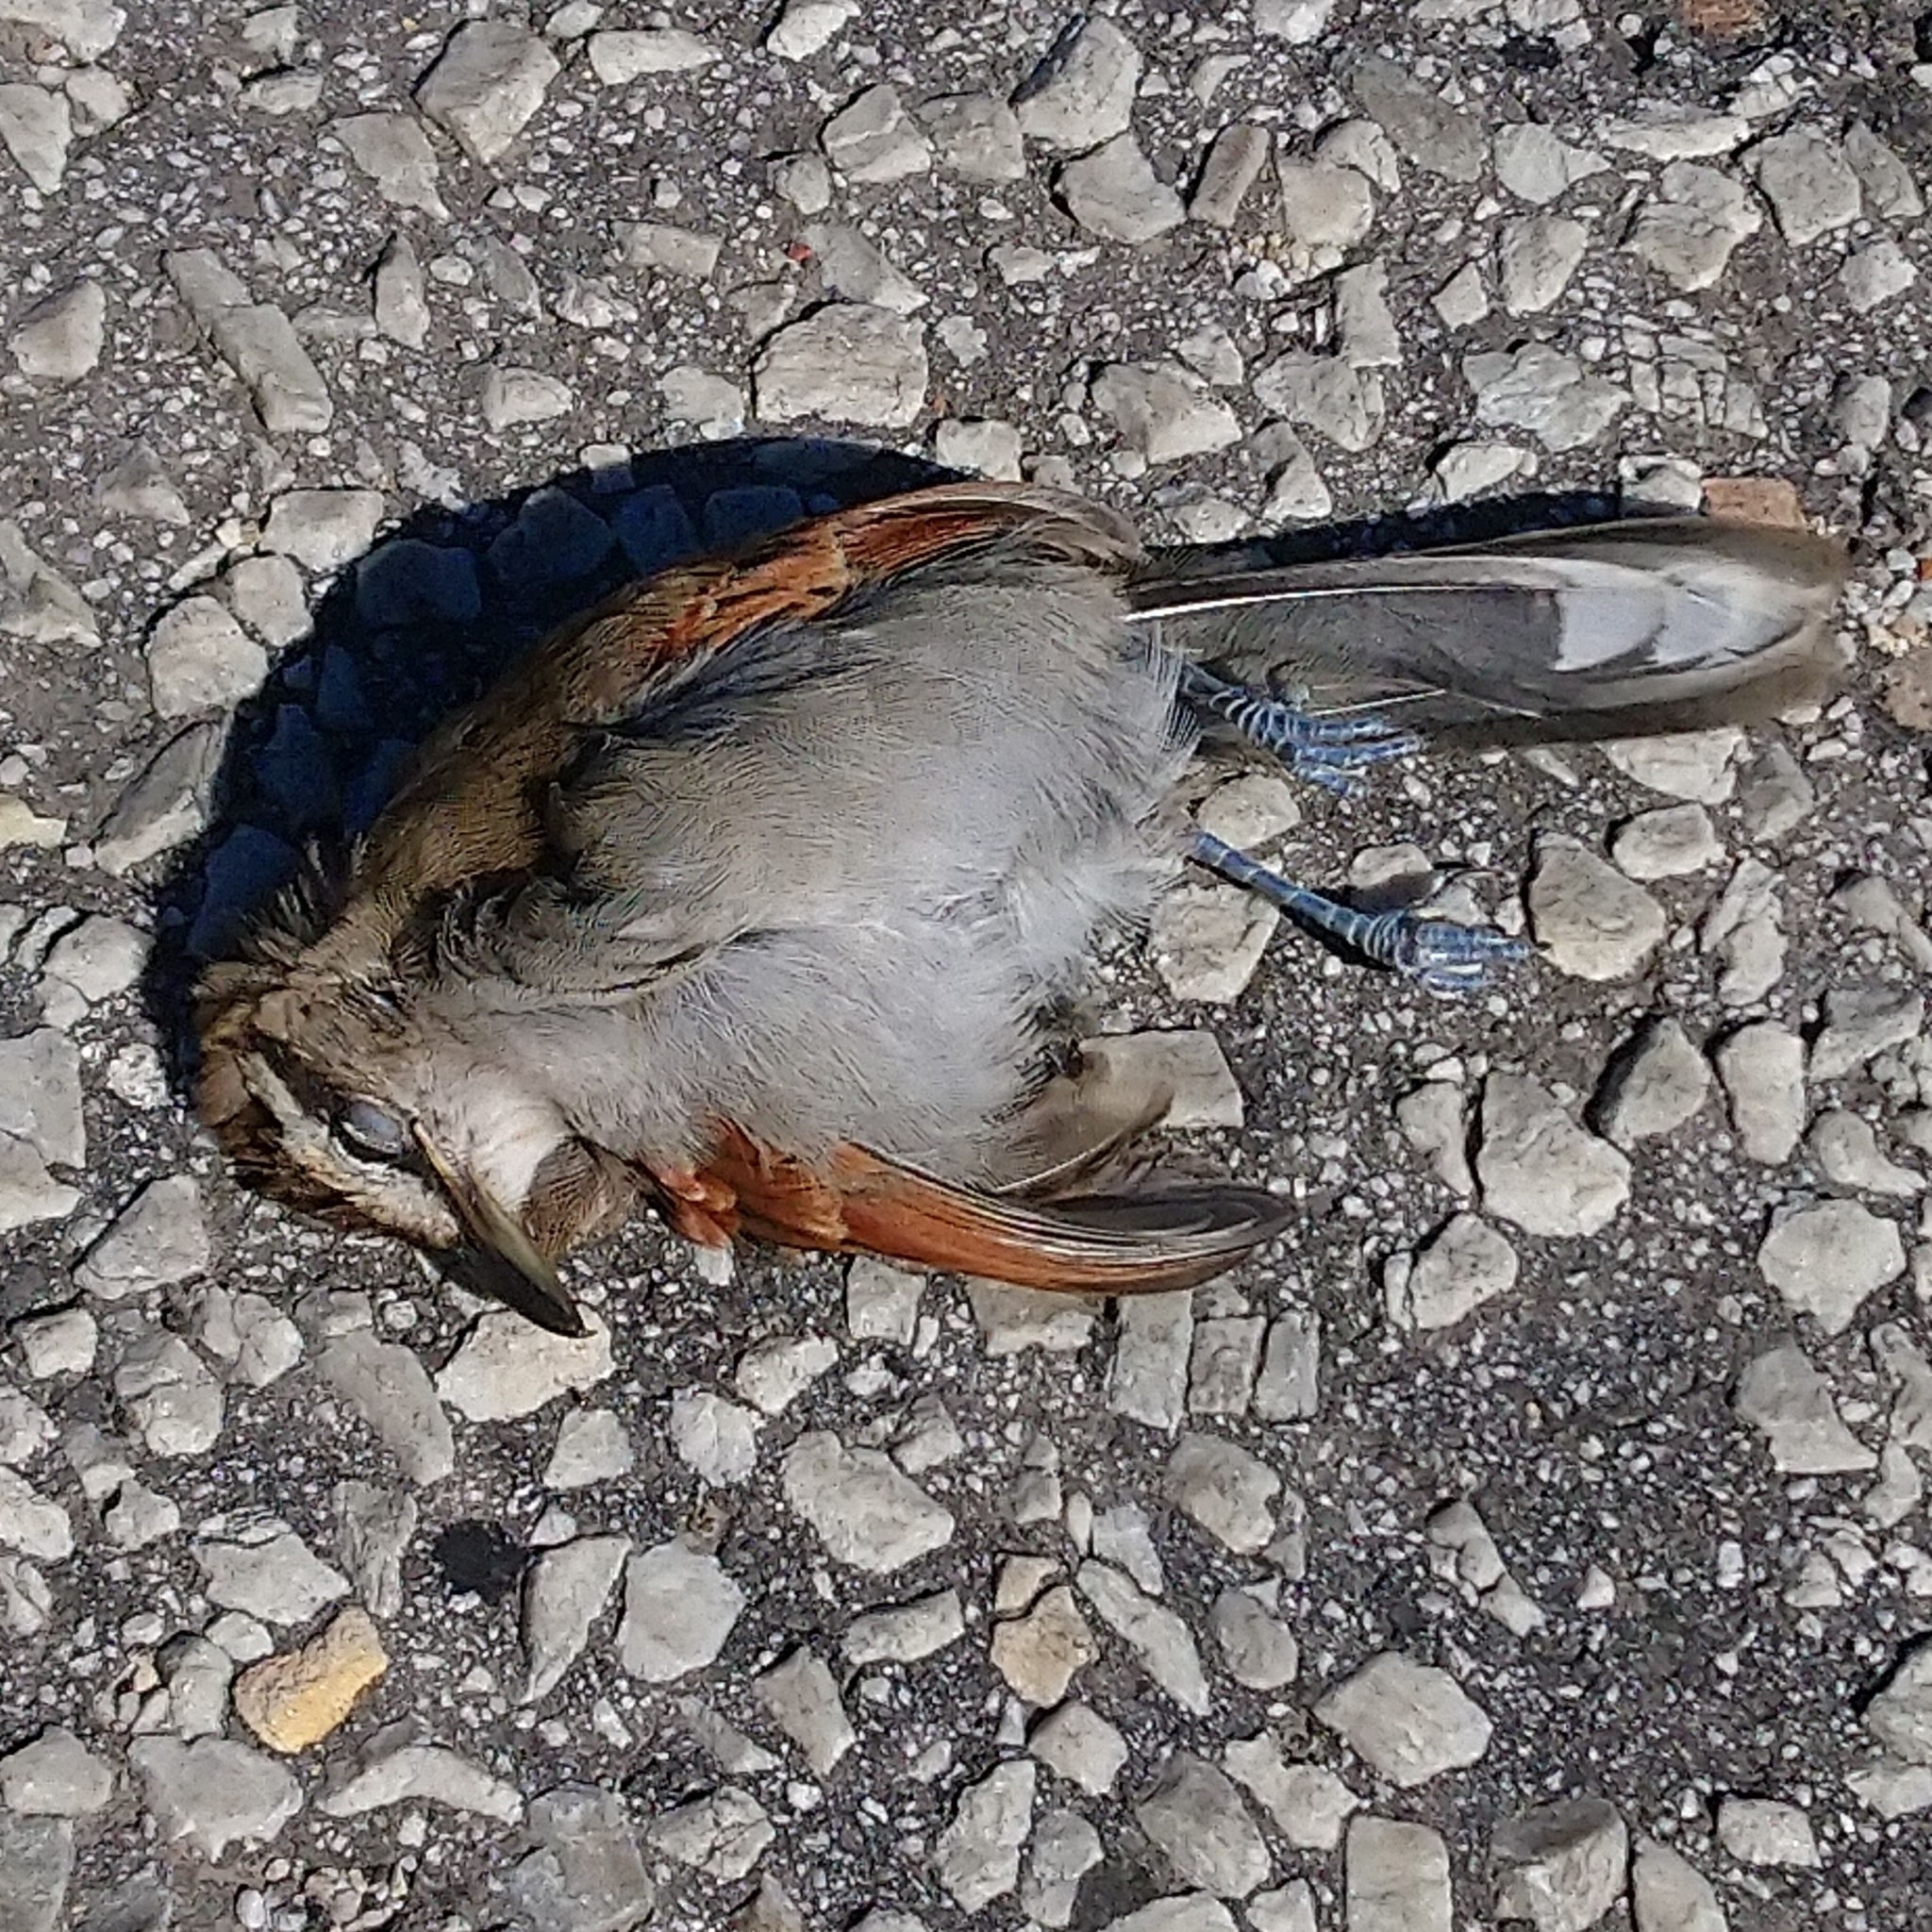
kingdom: Animalia
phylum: Chordata
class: Aves
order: Passeriformes
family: Malaconotidae
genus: Tchagra
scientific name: Tchagra tchagra
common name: Southern tchagra
